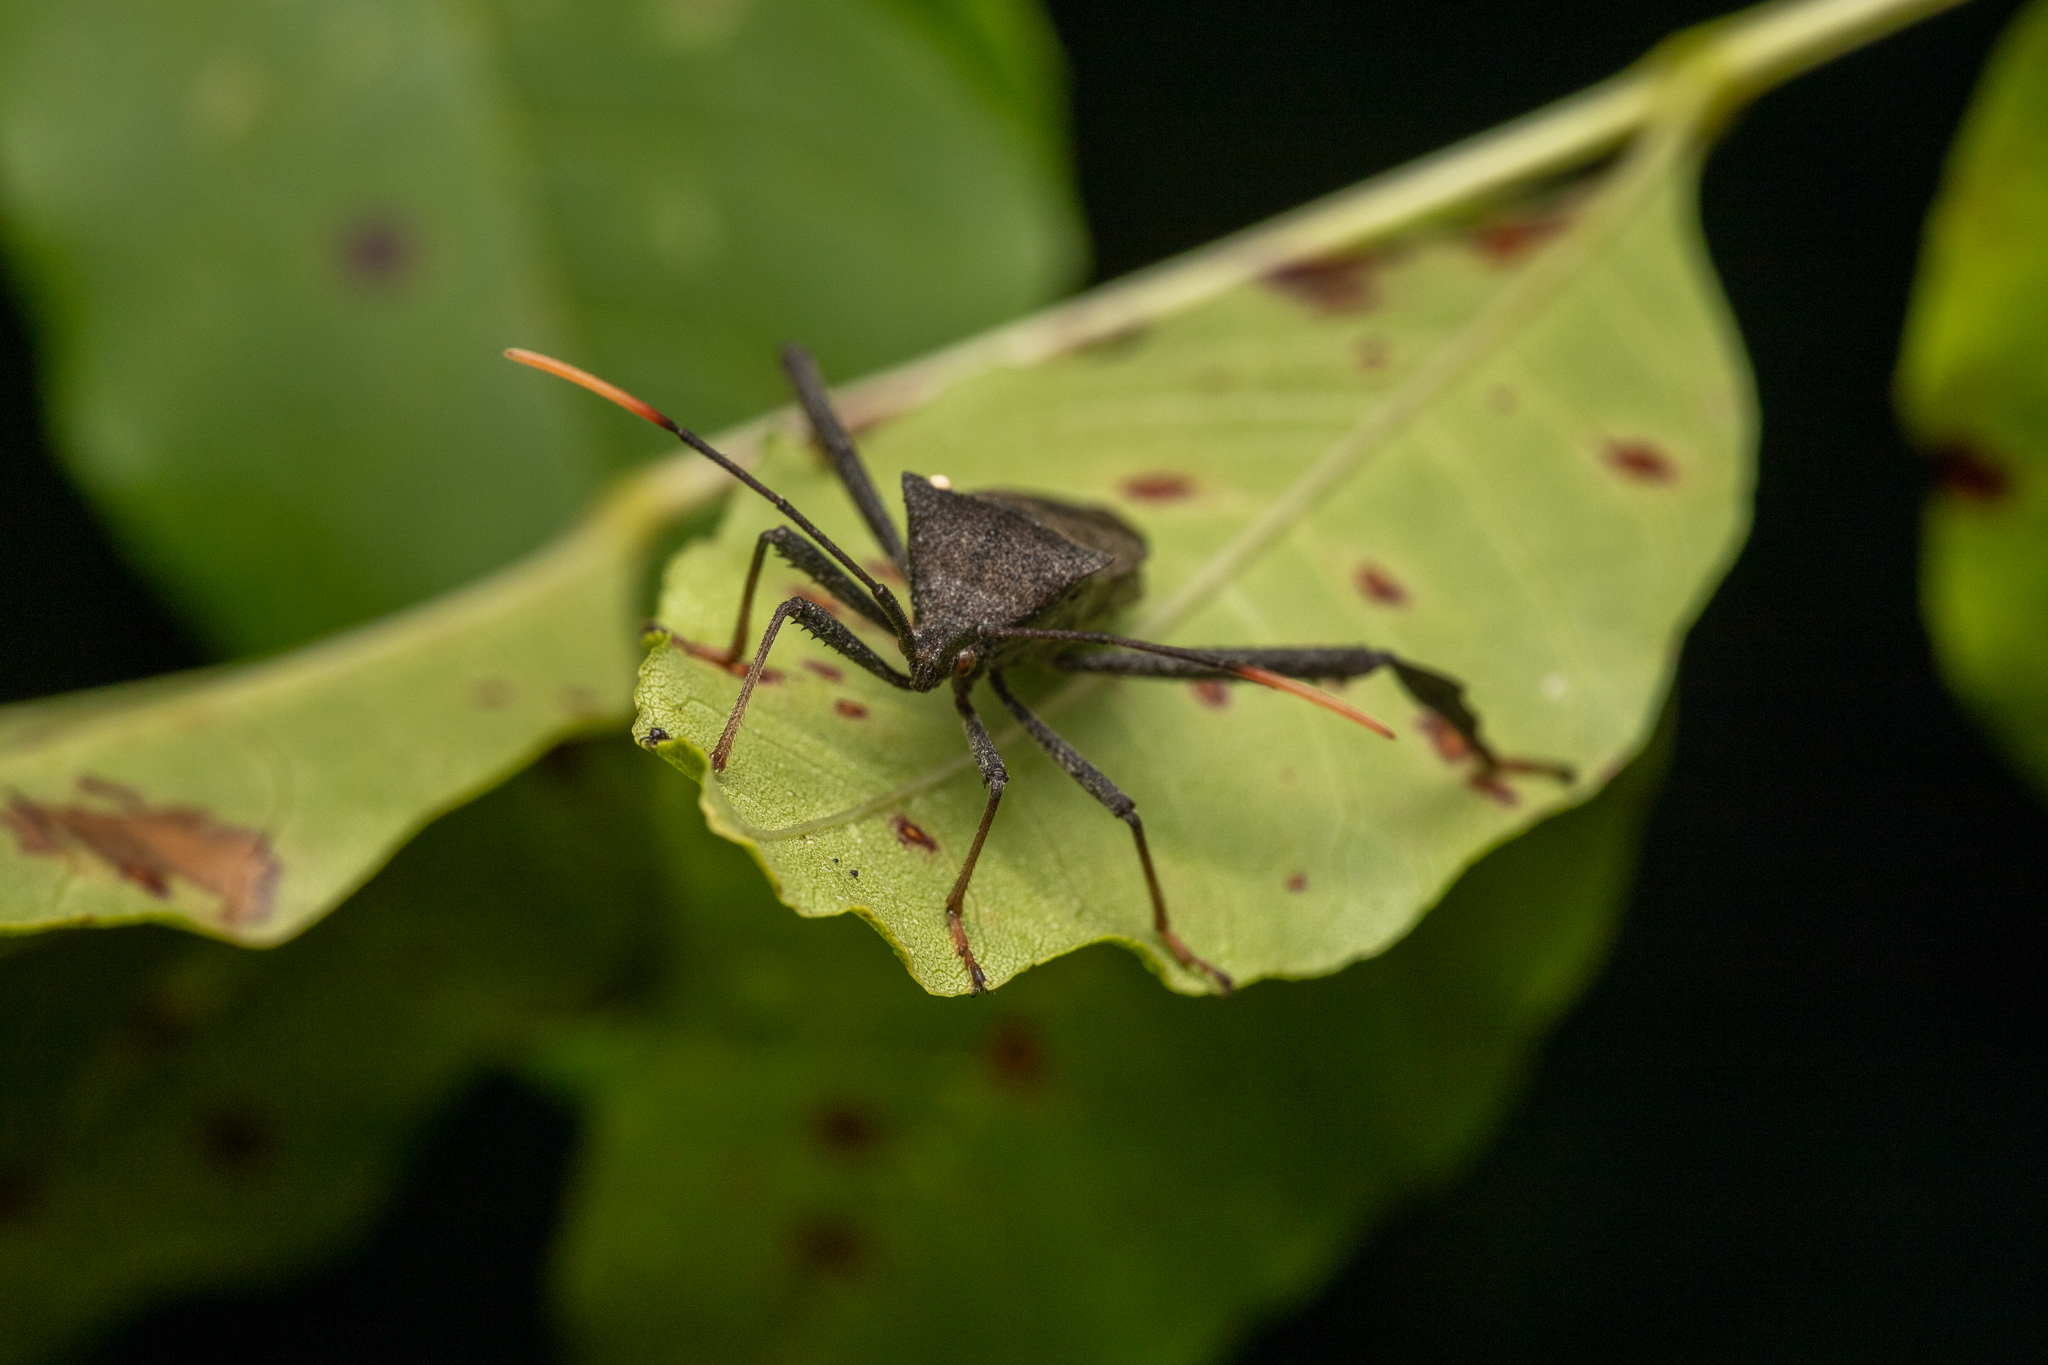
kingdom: Animalia
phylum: Arthropoda
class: Insecta
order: Hemiptera
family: Coreidae
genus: Acanthocephala
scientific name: Acanthocephala terminalis
